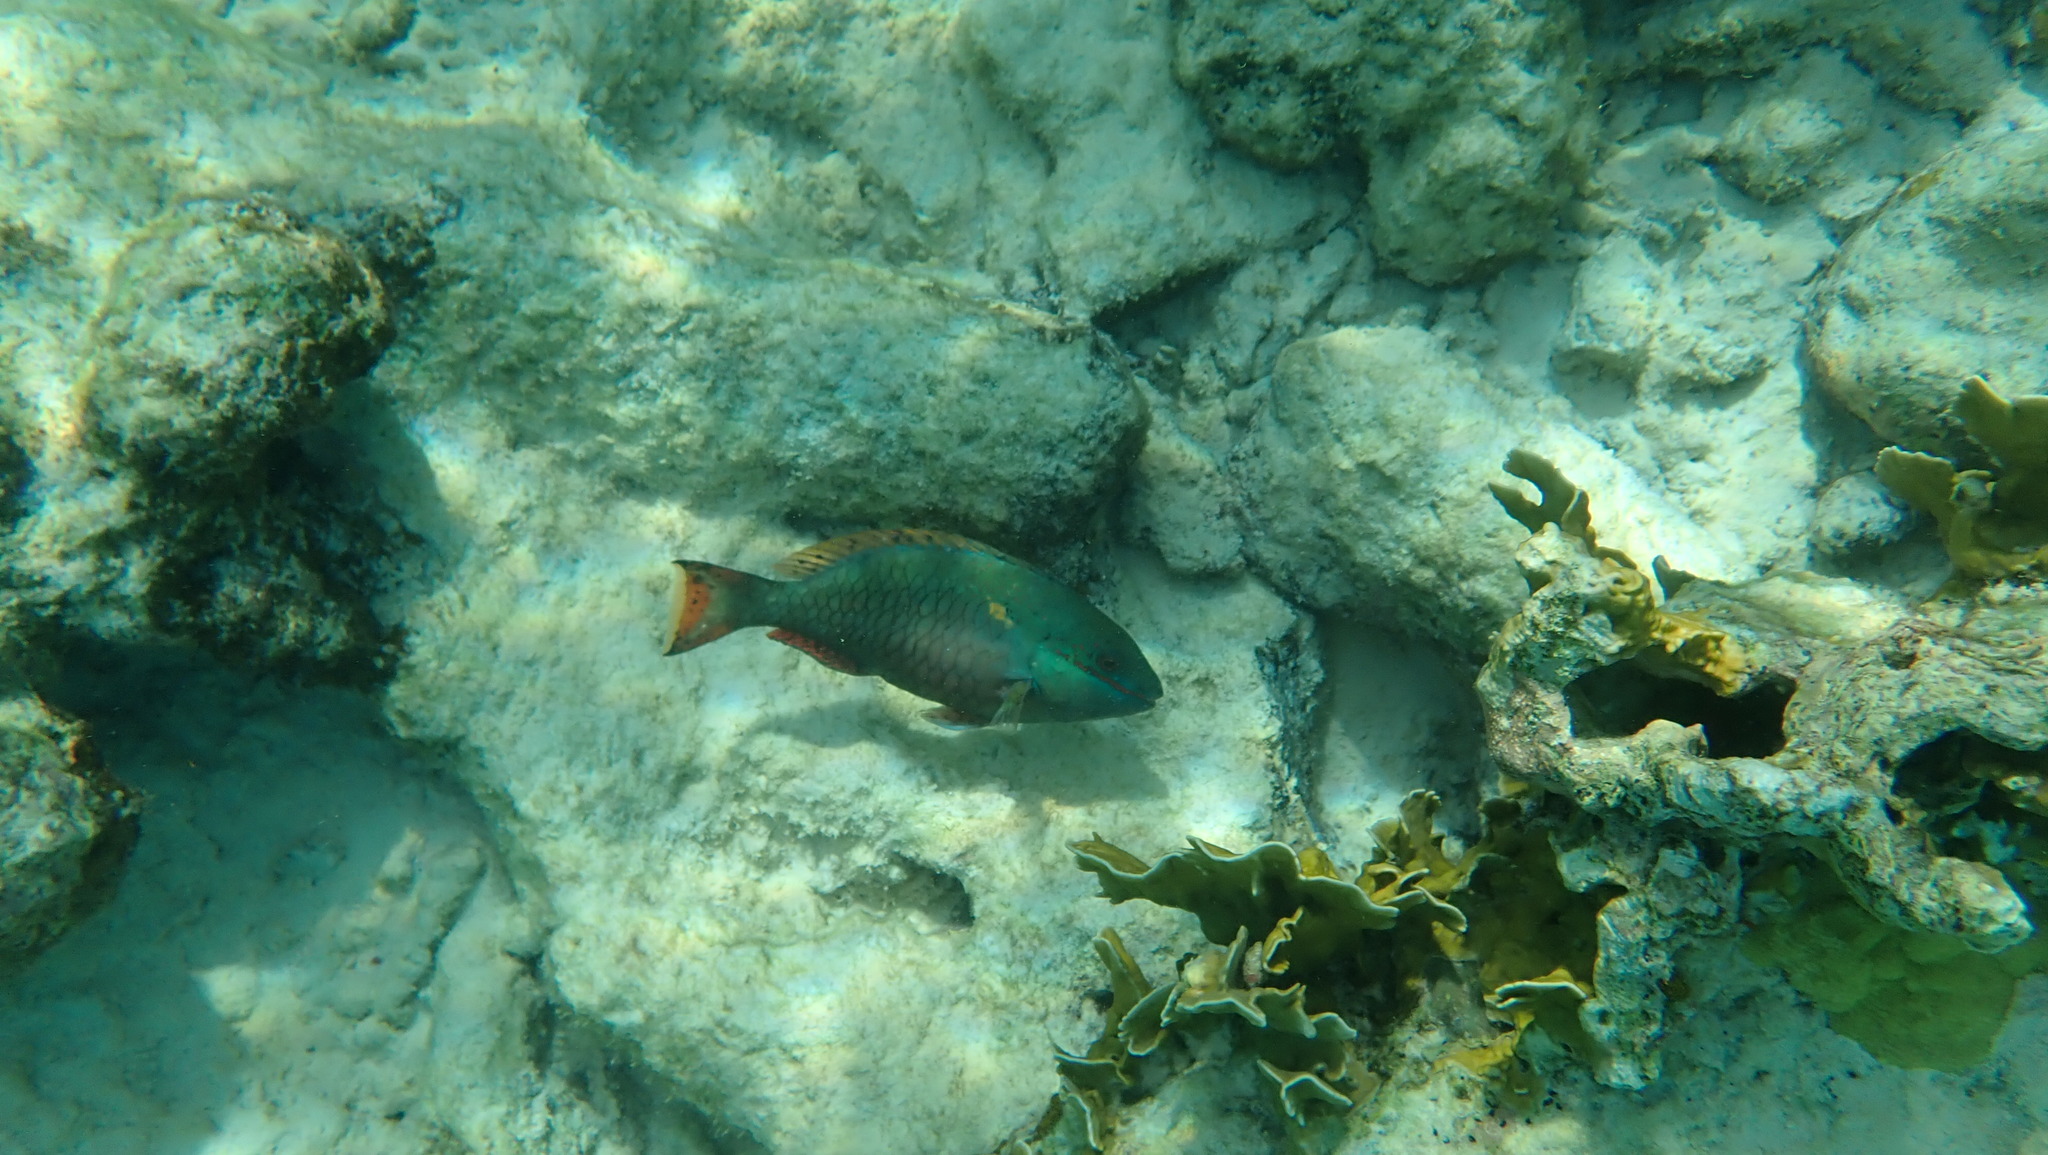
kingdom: Animalia
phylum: Chordata
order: Perciformes
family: Scaridae
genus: Sparisoma
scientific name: Sparisoma aurofrenatum
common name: Redband parrotfish
